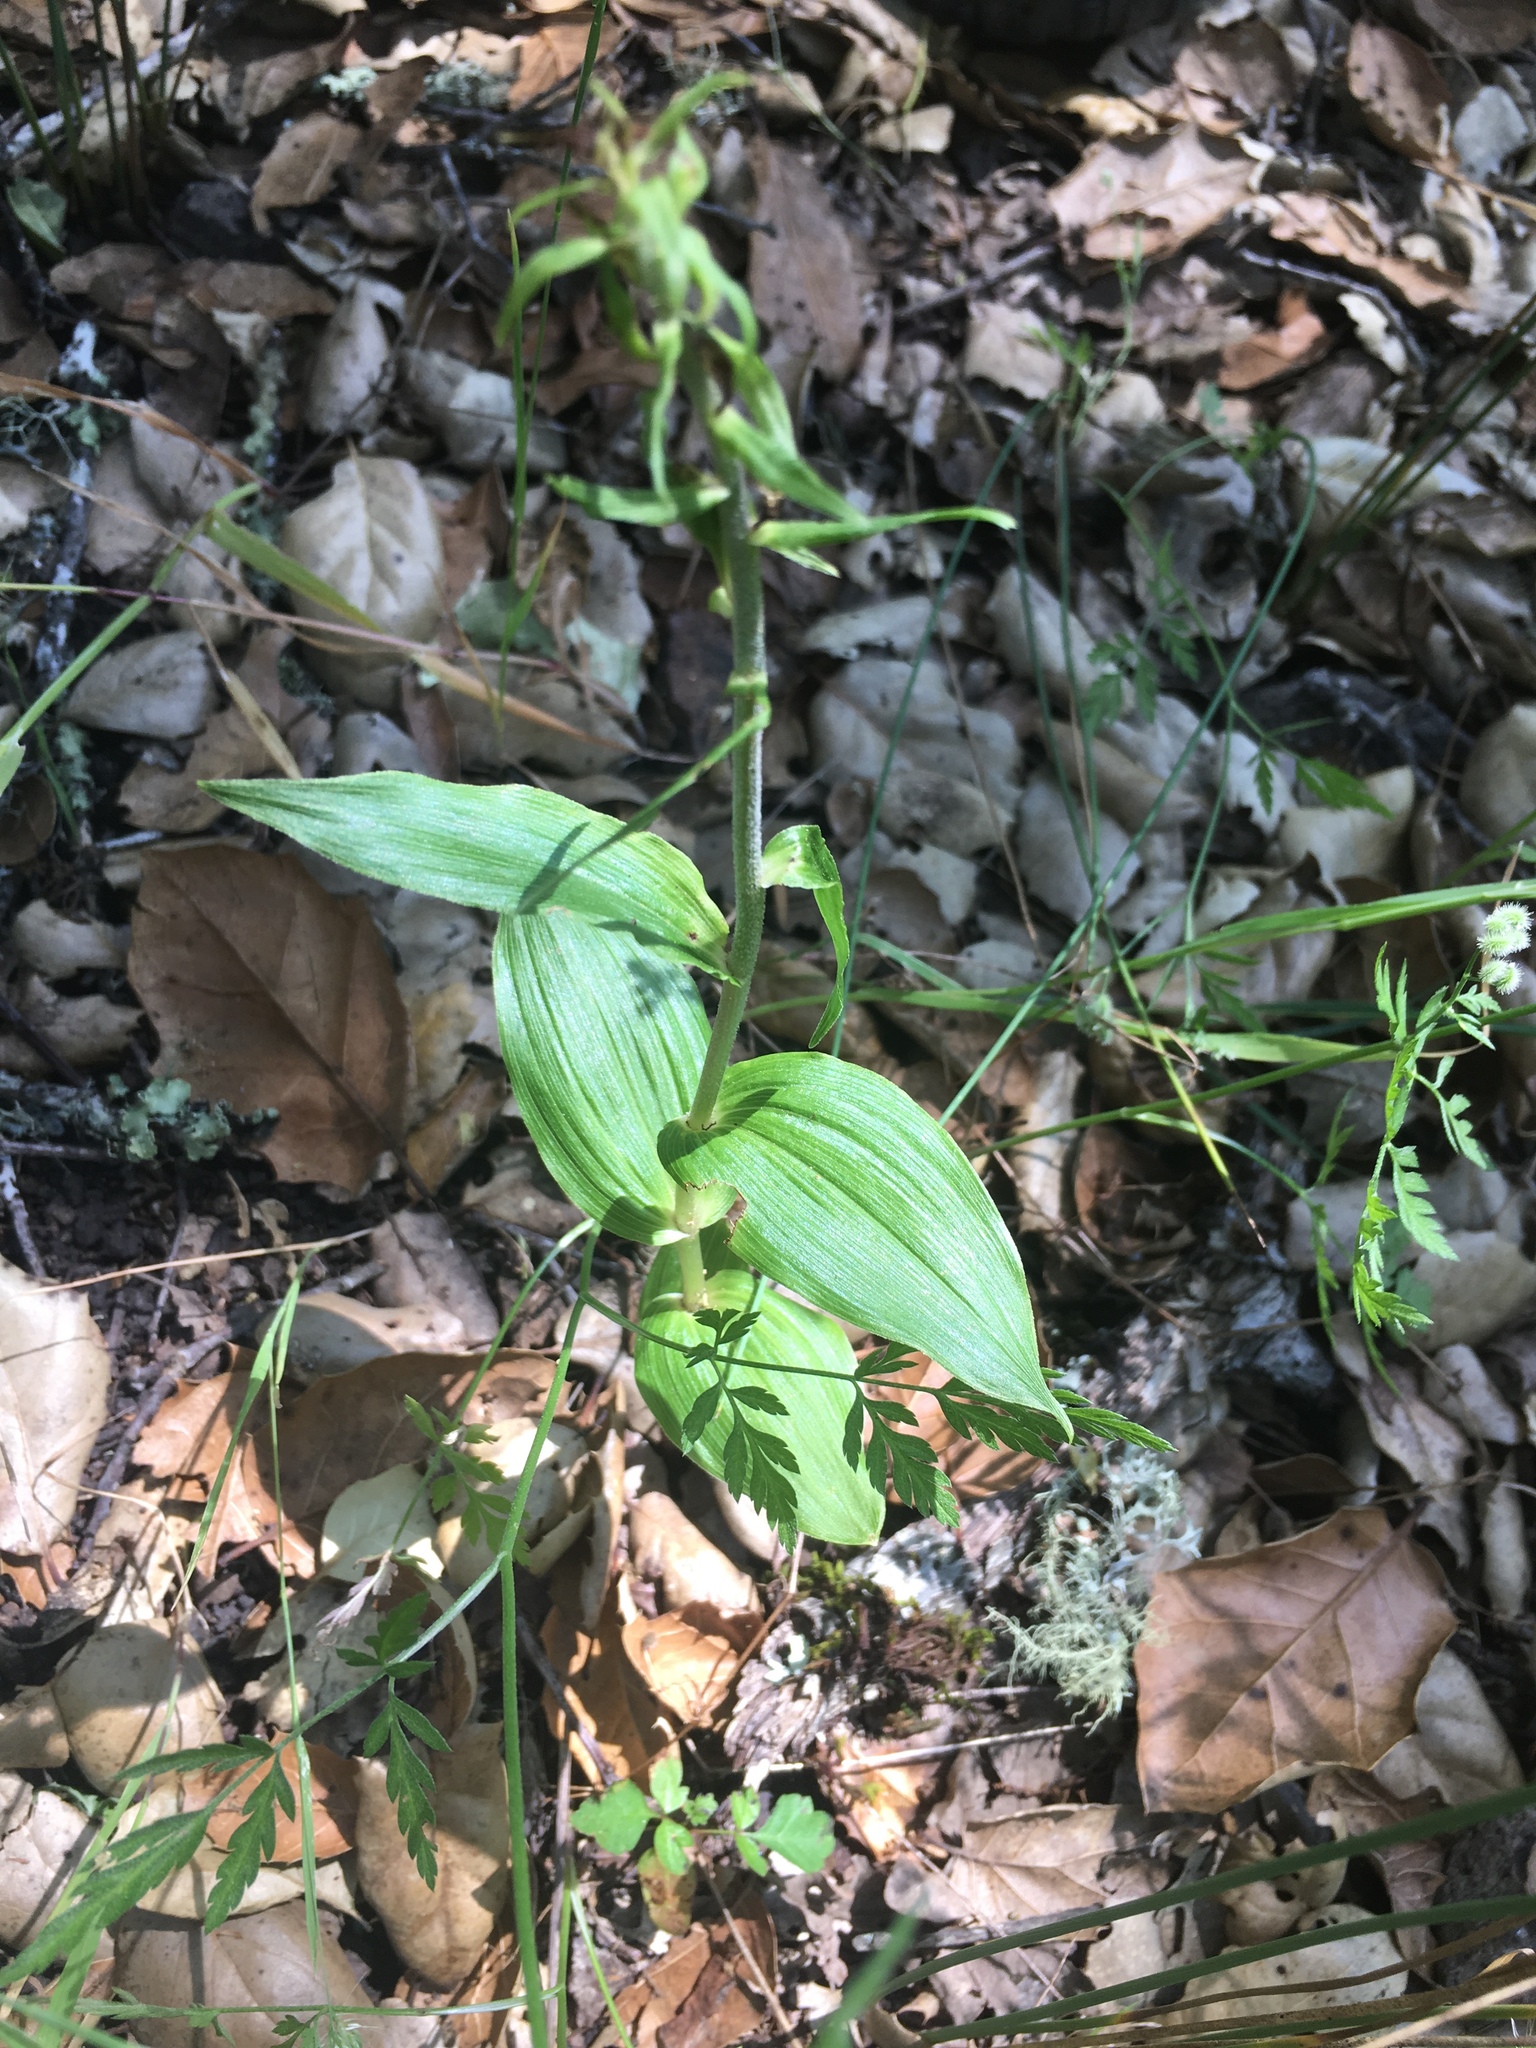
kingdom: Plantae
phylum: Tracheophyta
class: Liliopsida
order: Asparagales
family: Orchidaceae
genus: Epipactis
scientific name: Epipactis helleborine
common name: Broad-leaved helleborine
